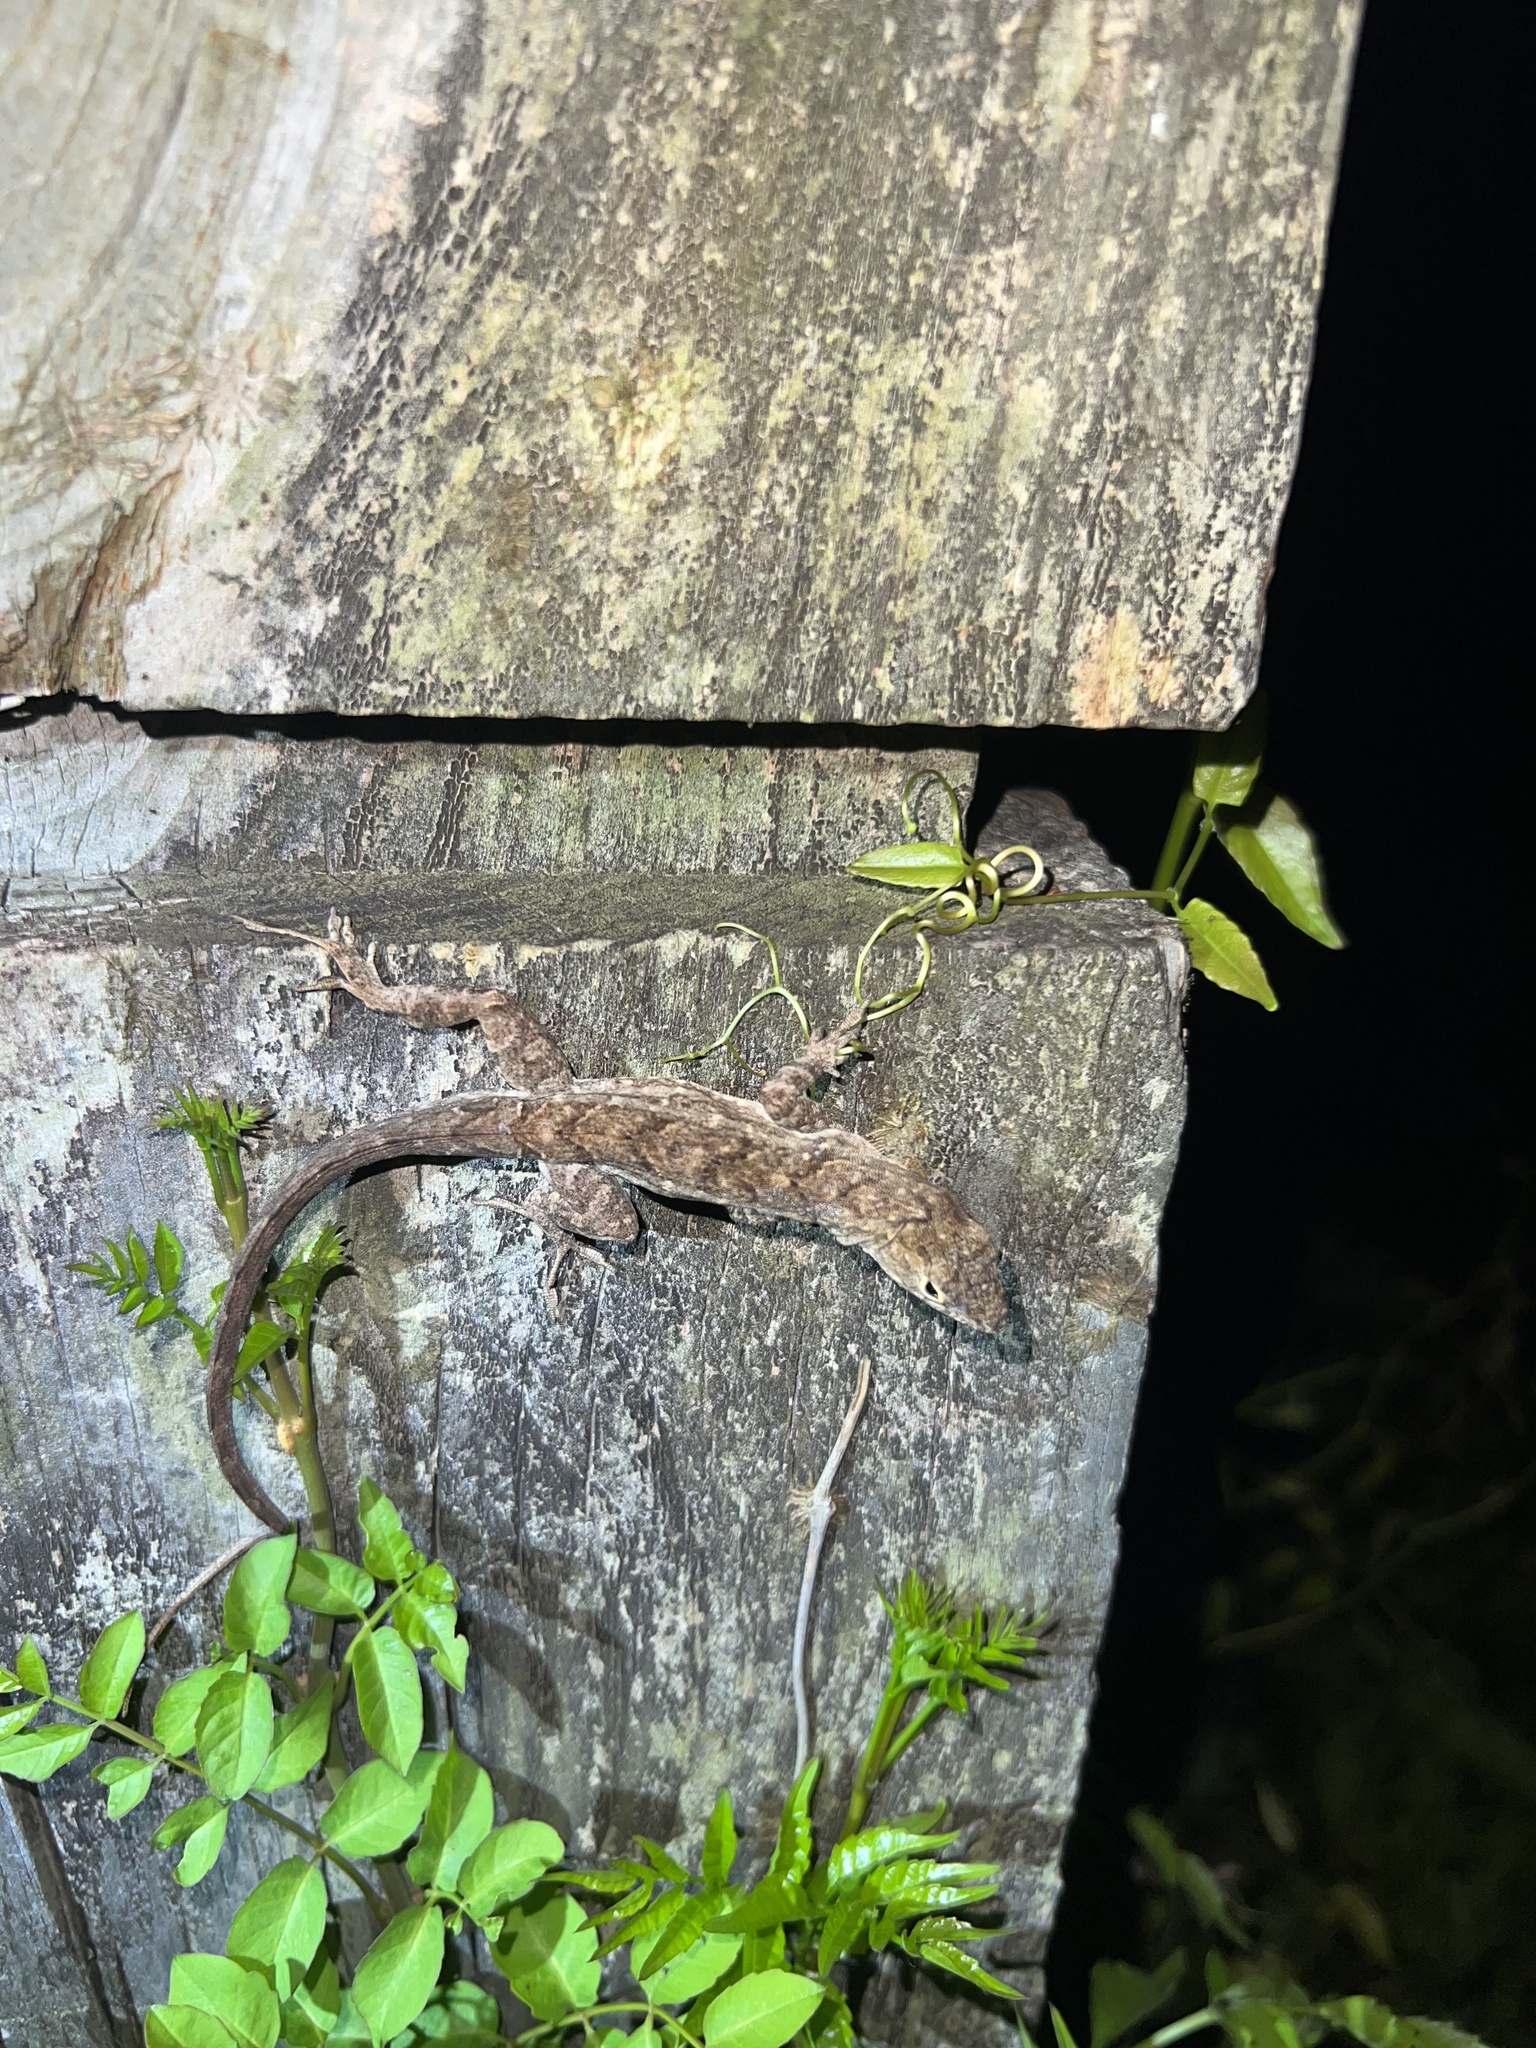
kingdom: Animalia
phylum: Chordata
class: Squamata
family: Dactyloidae
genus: Anolis
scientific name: Anolis sagrei
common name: Brown anole
